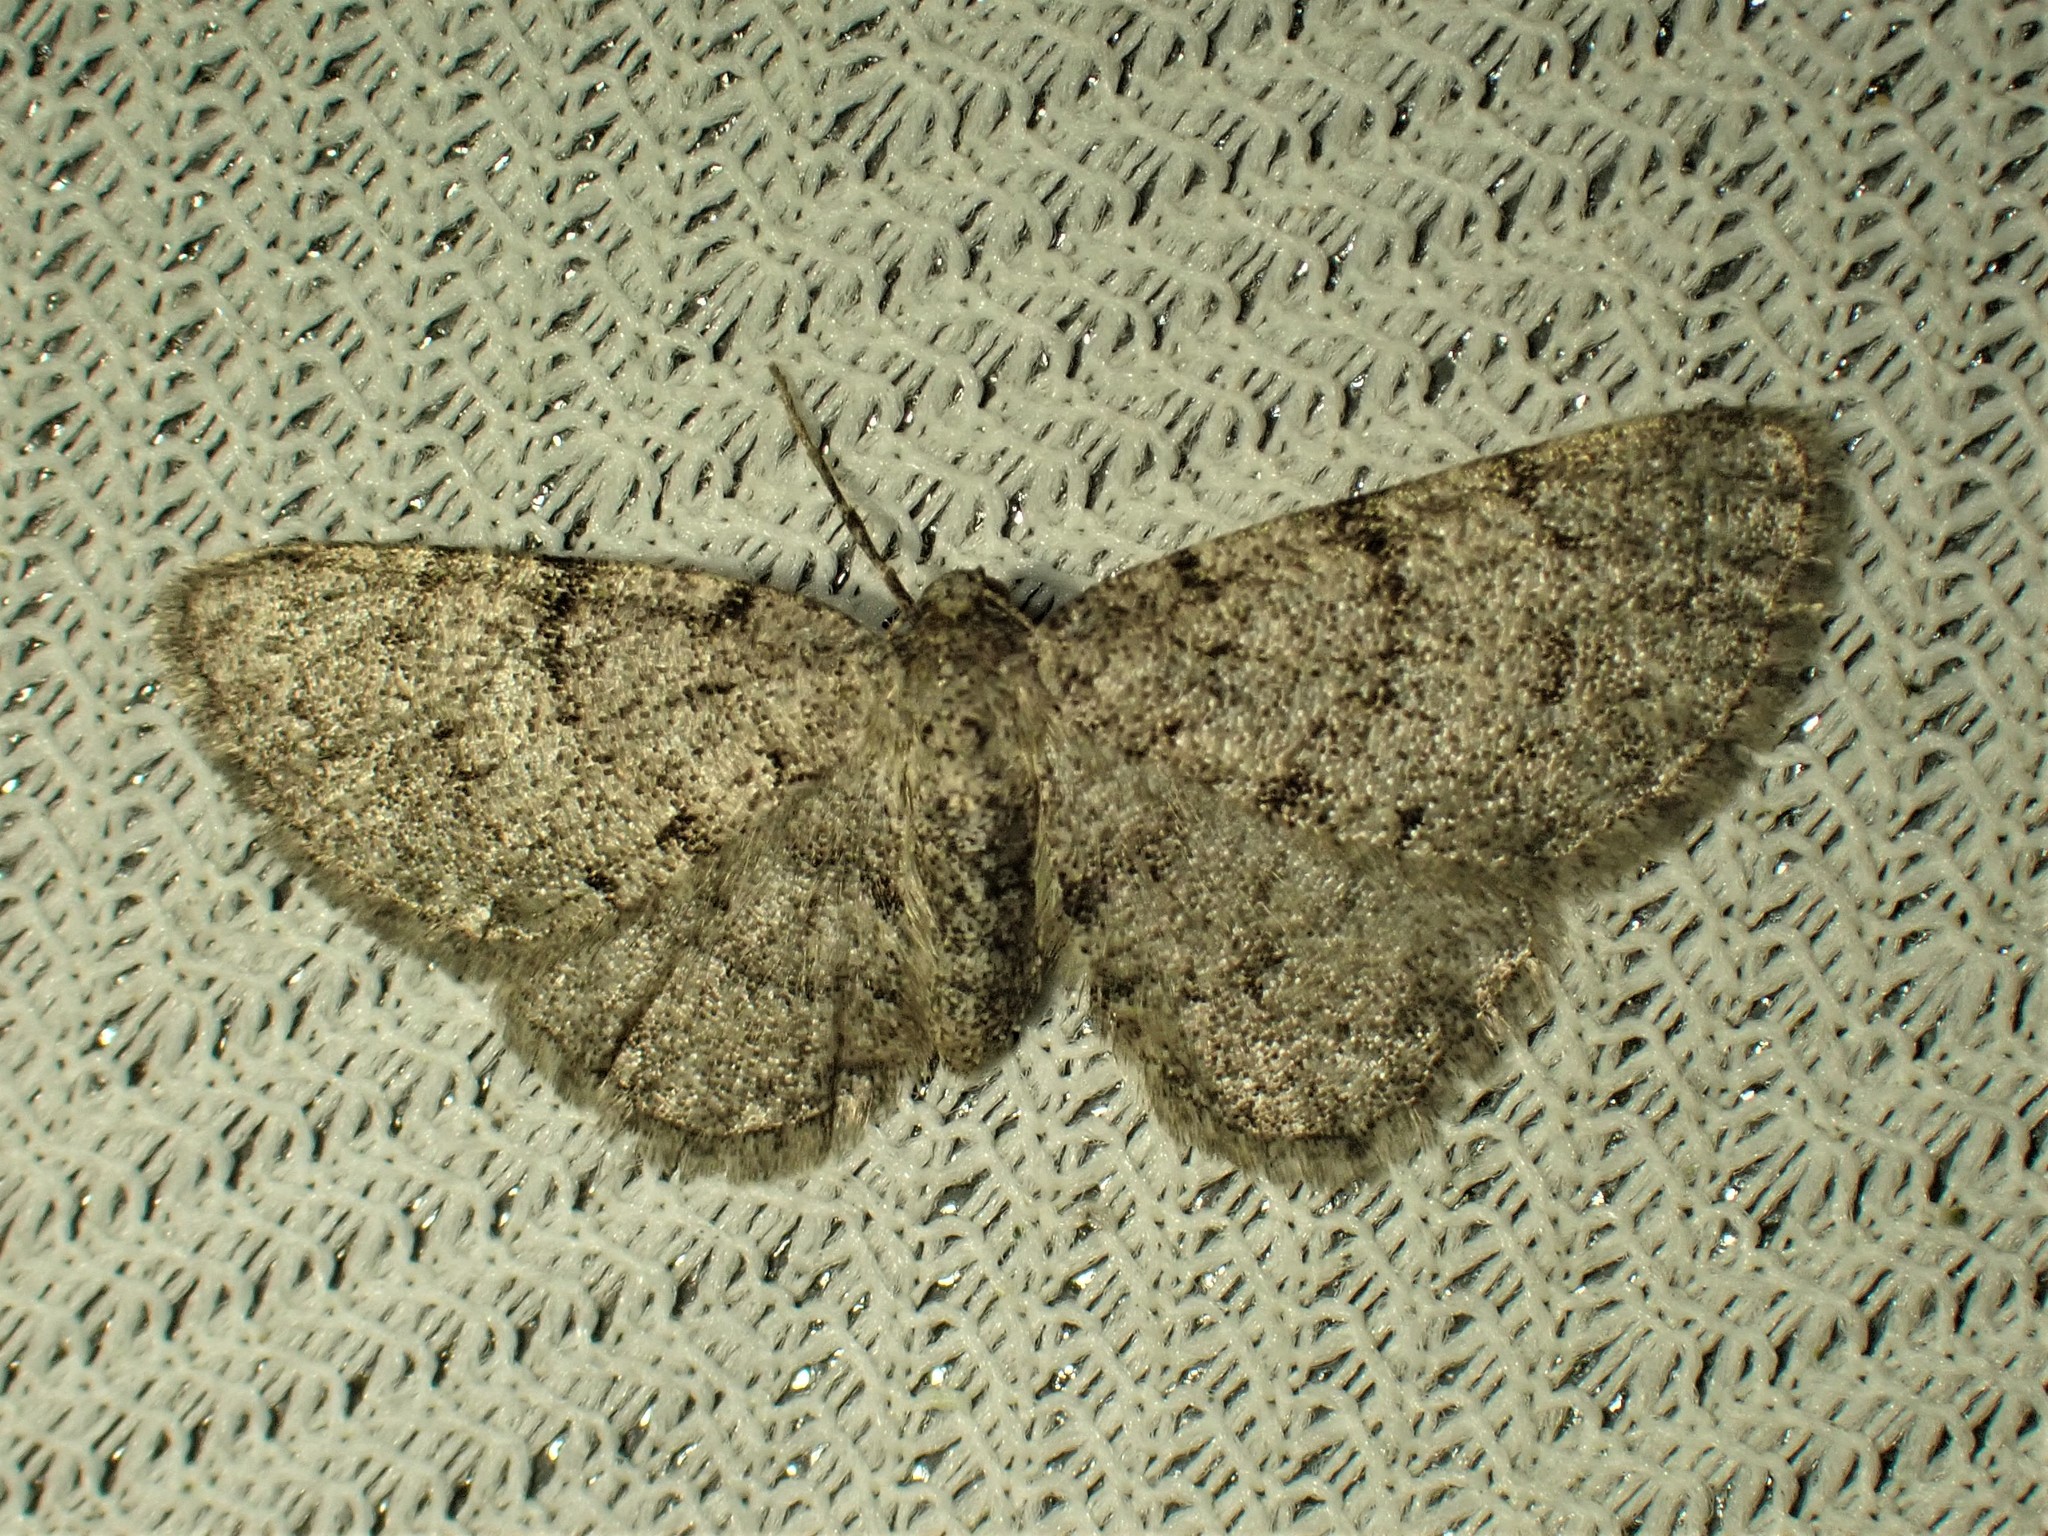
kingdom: Animalia
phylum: Arthropoda
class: Insecta
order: Lepidoptera
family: Geometridae
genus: Aethalura
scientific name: Aethalura intertexta
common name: Four-barred gray
